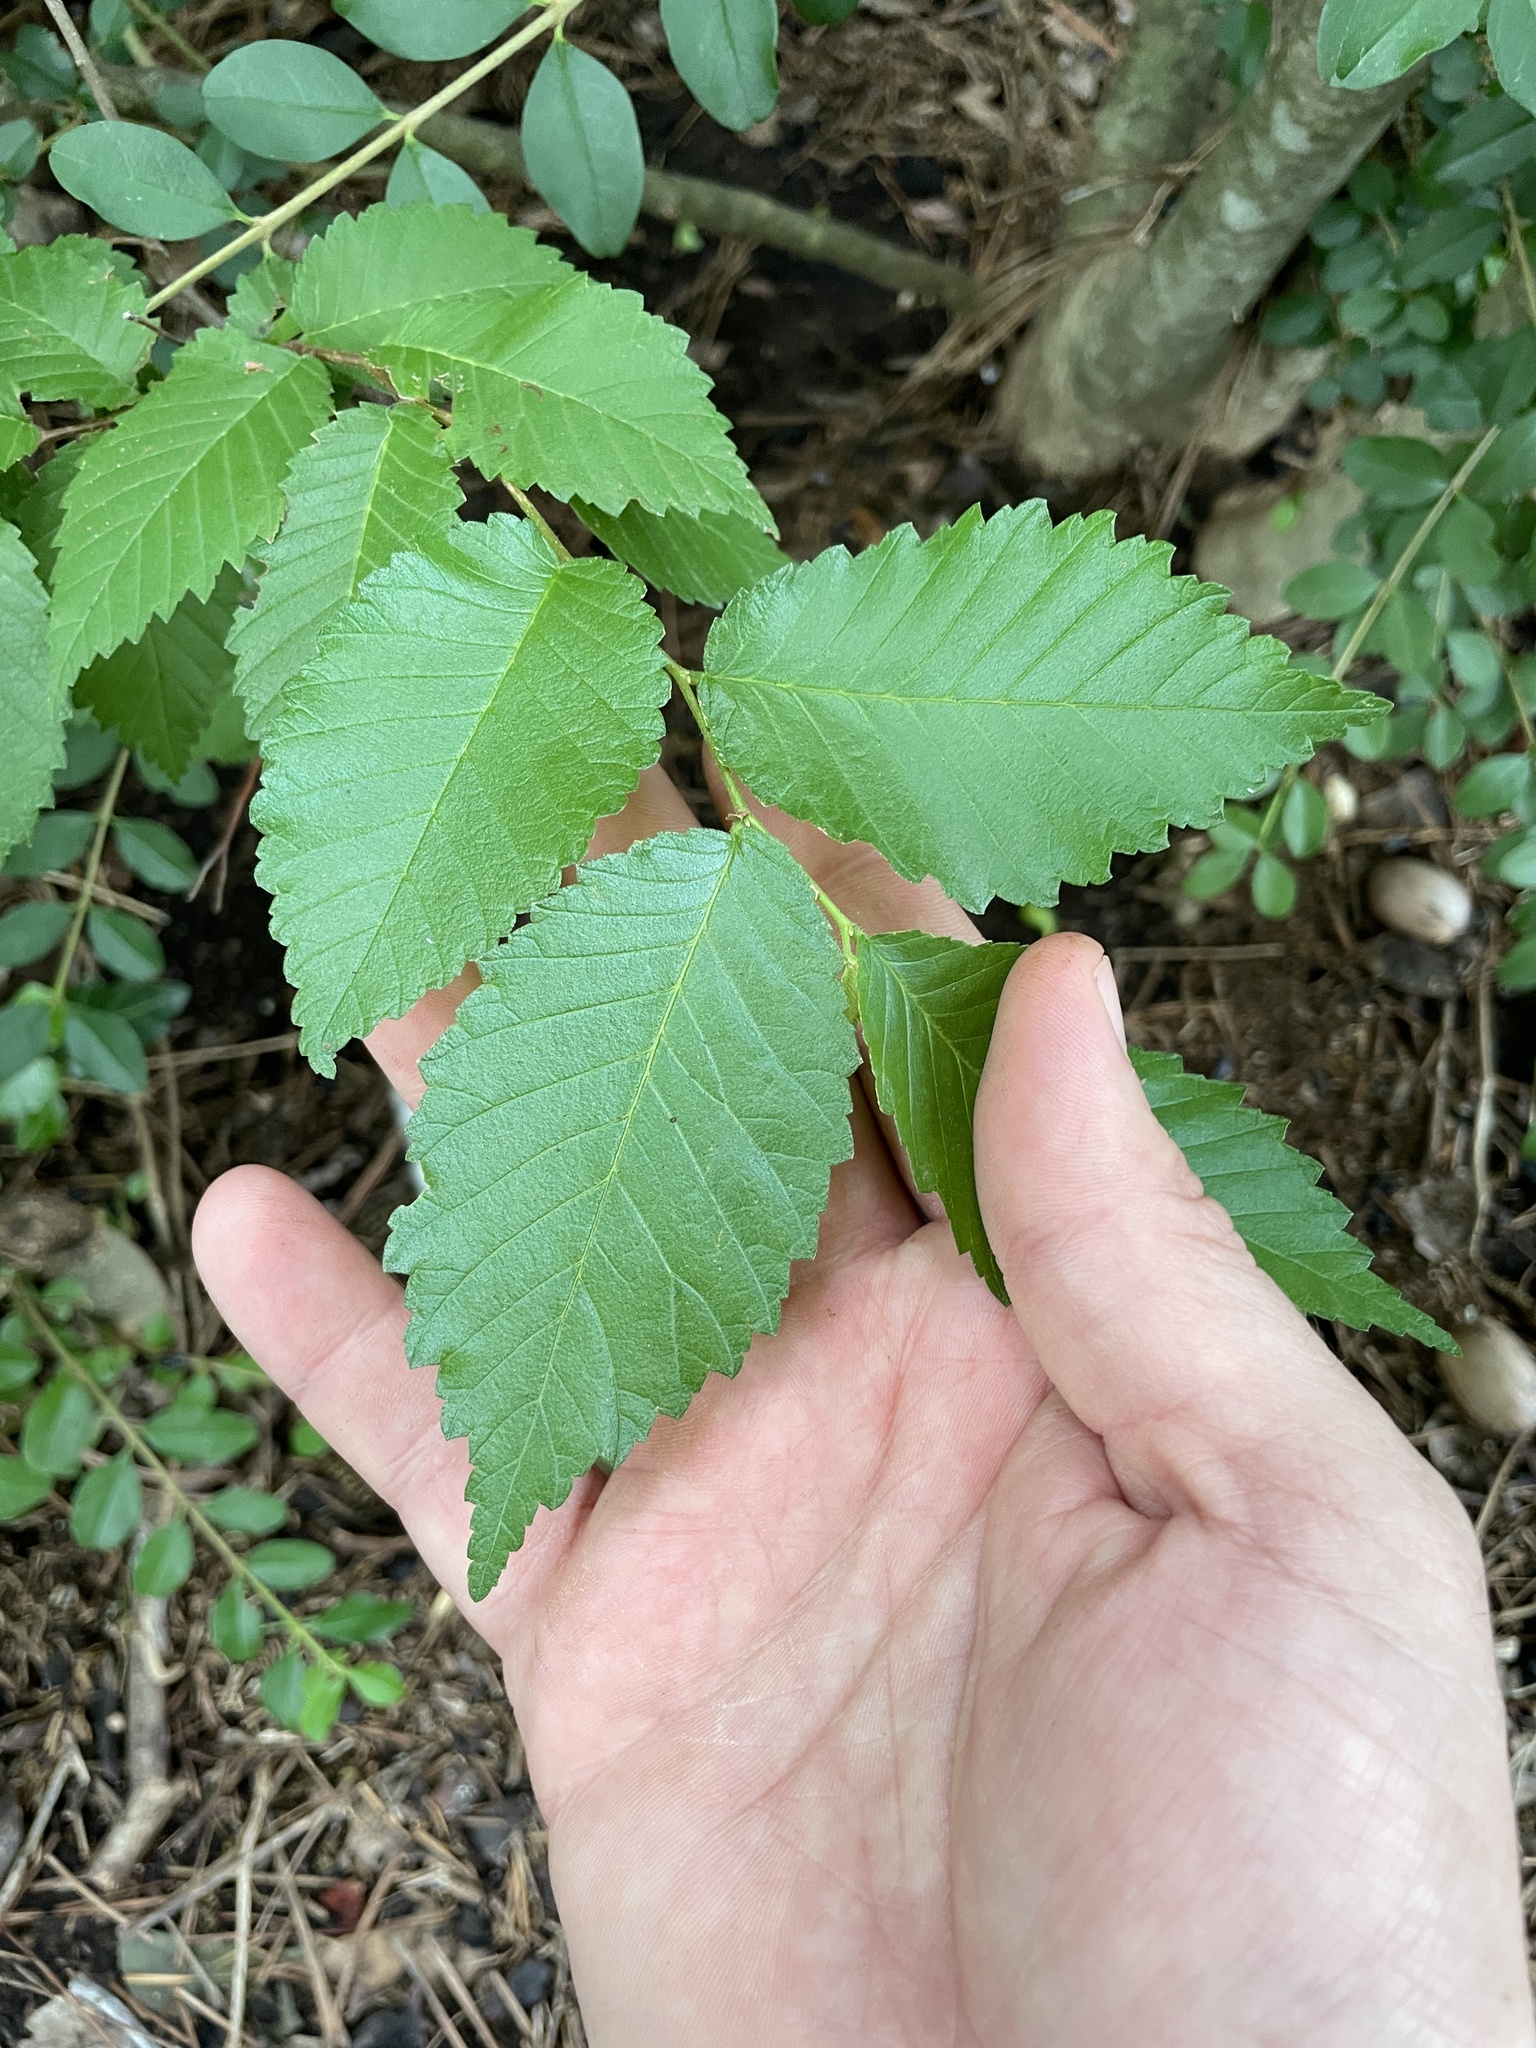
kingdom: Plantae
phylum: Tracheophyta
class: Magnoliopsida
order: Rosales
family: Ulmaceae
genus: Ulmus
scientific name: Ulmus americana
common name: American elm
